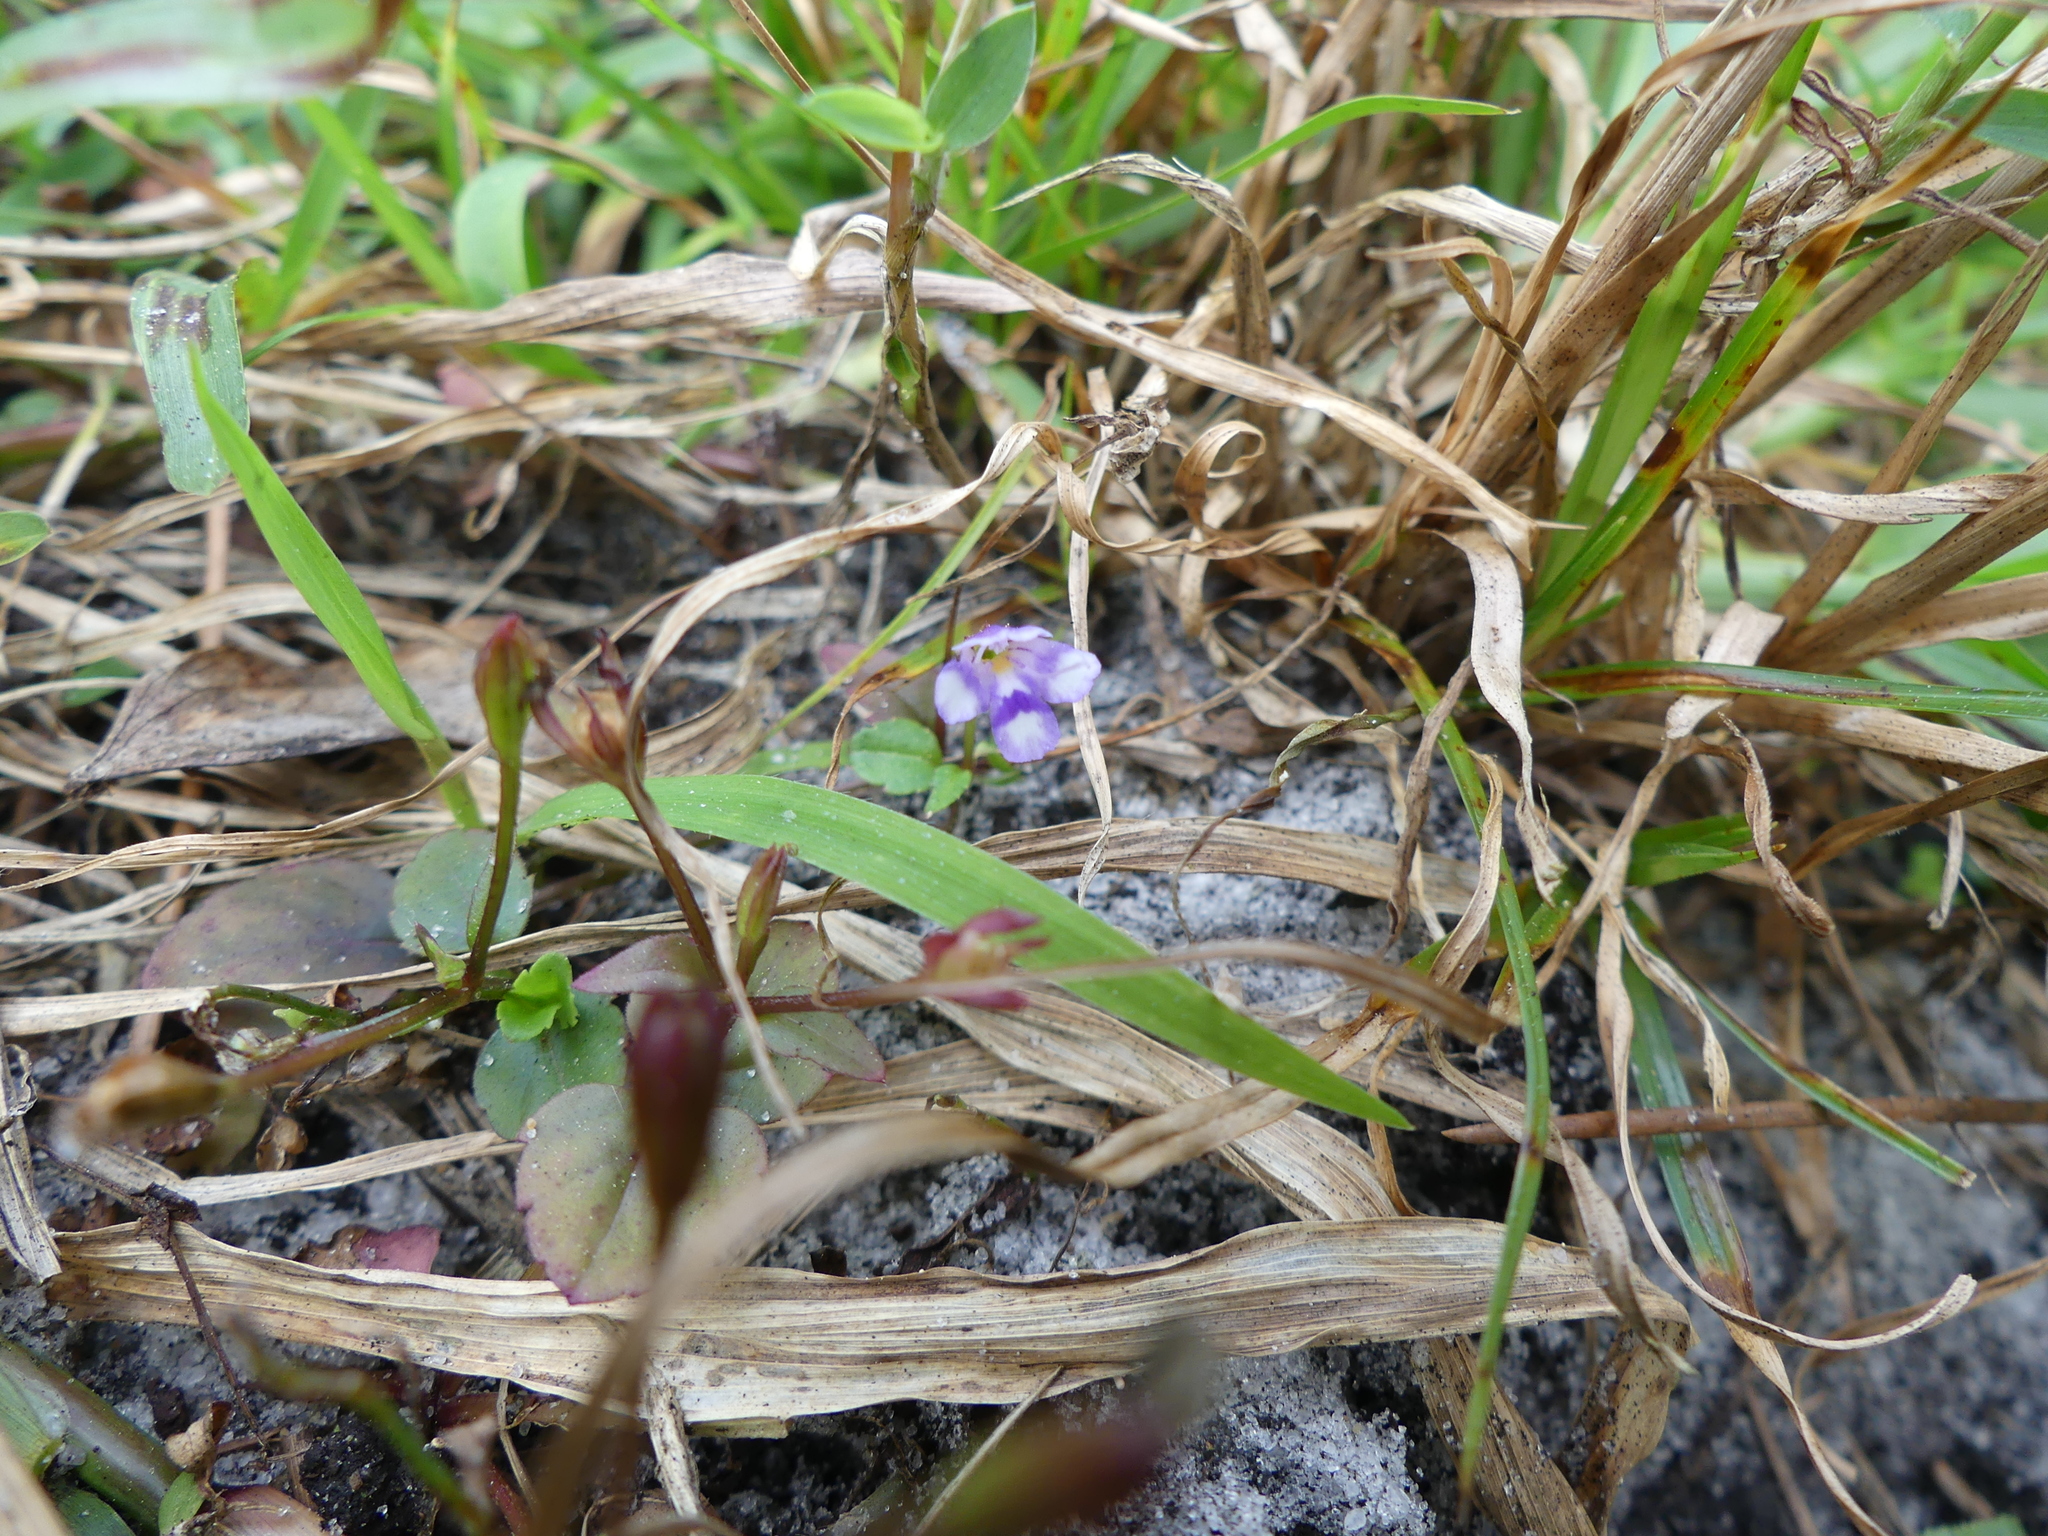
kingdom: Plantae
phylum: Tracheophyta
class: Magnoliopsida
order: Lamiales
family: Linderniaceae
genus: Torenia
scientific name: Torenia crustacea
